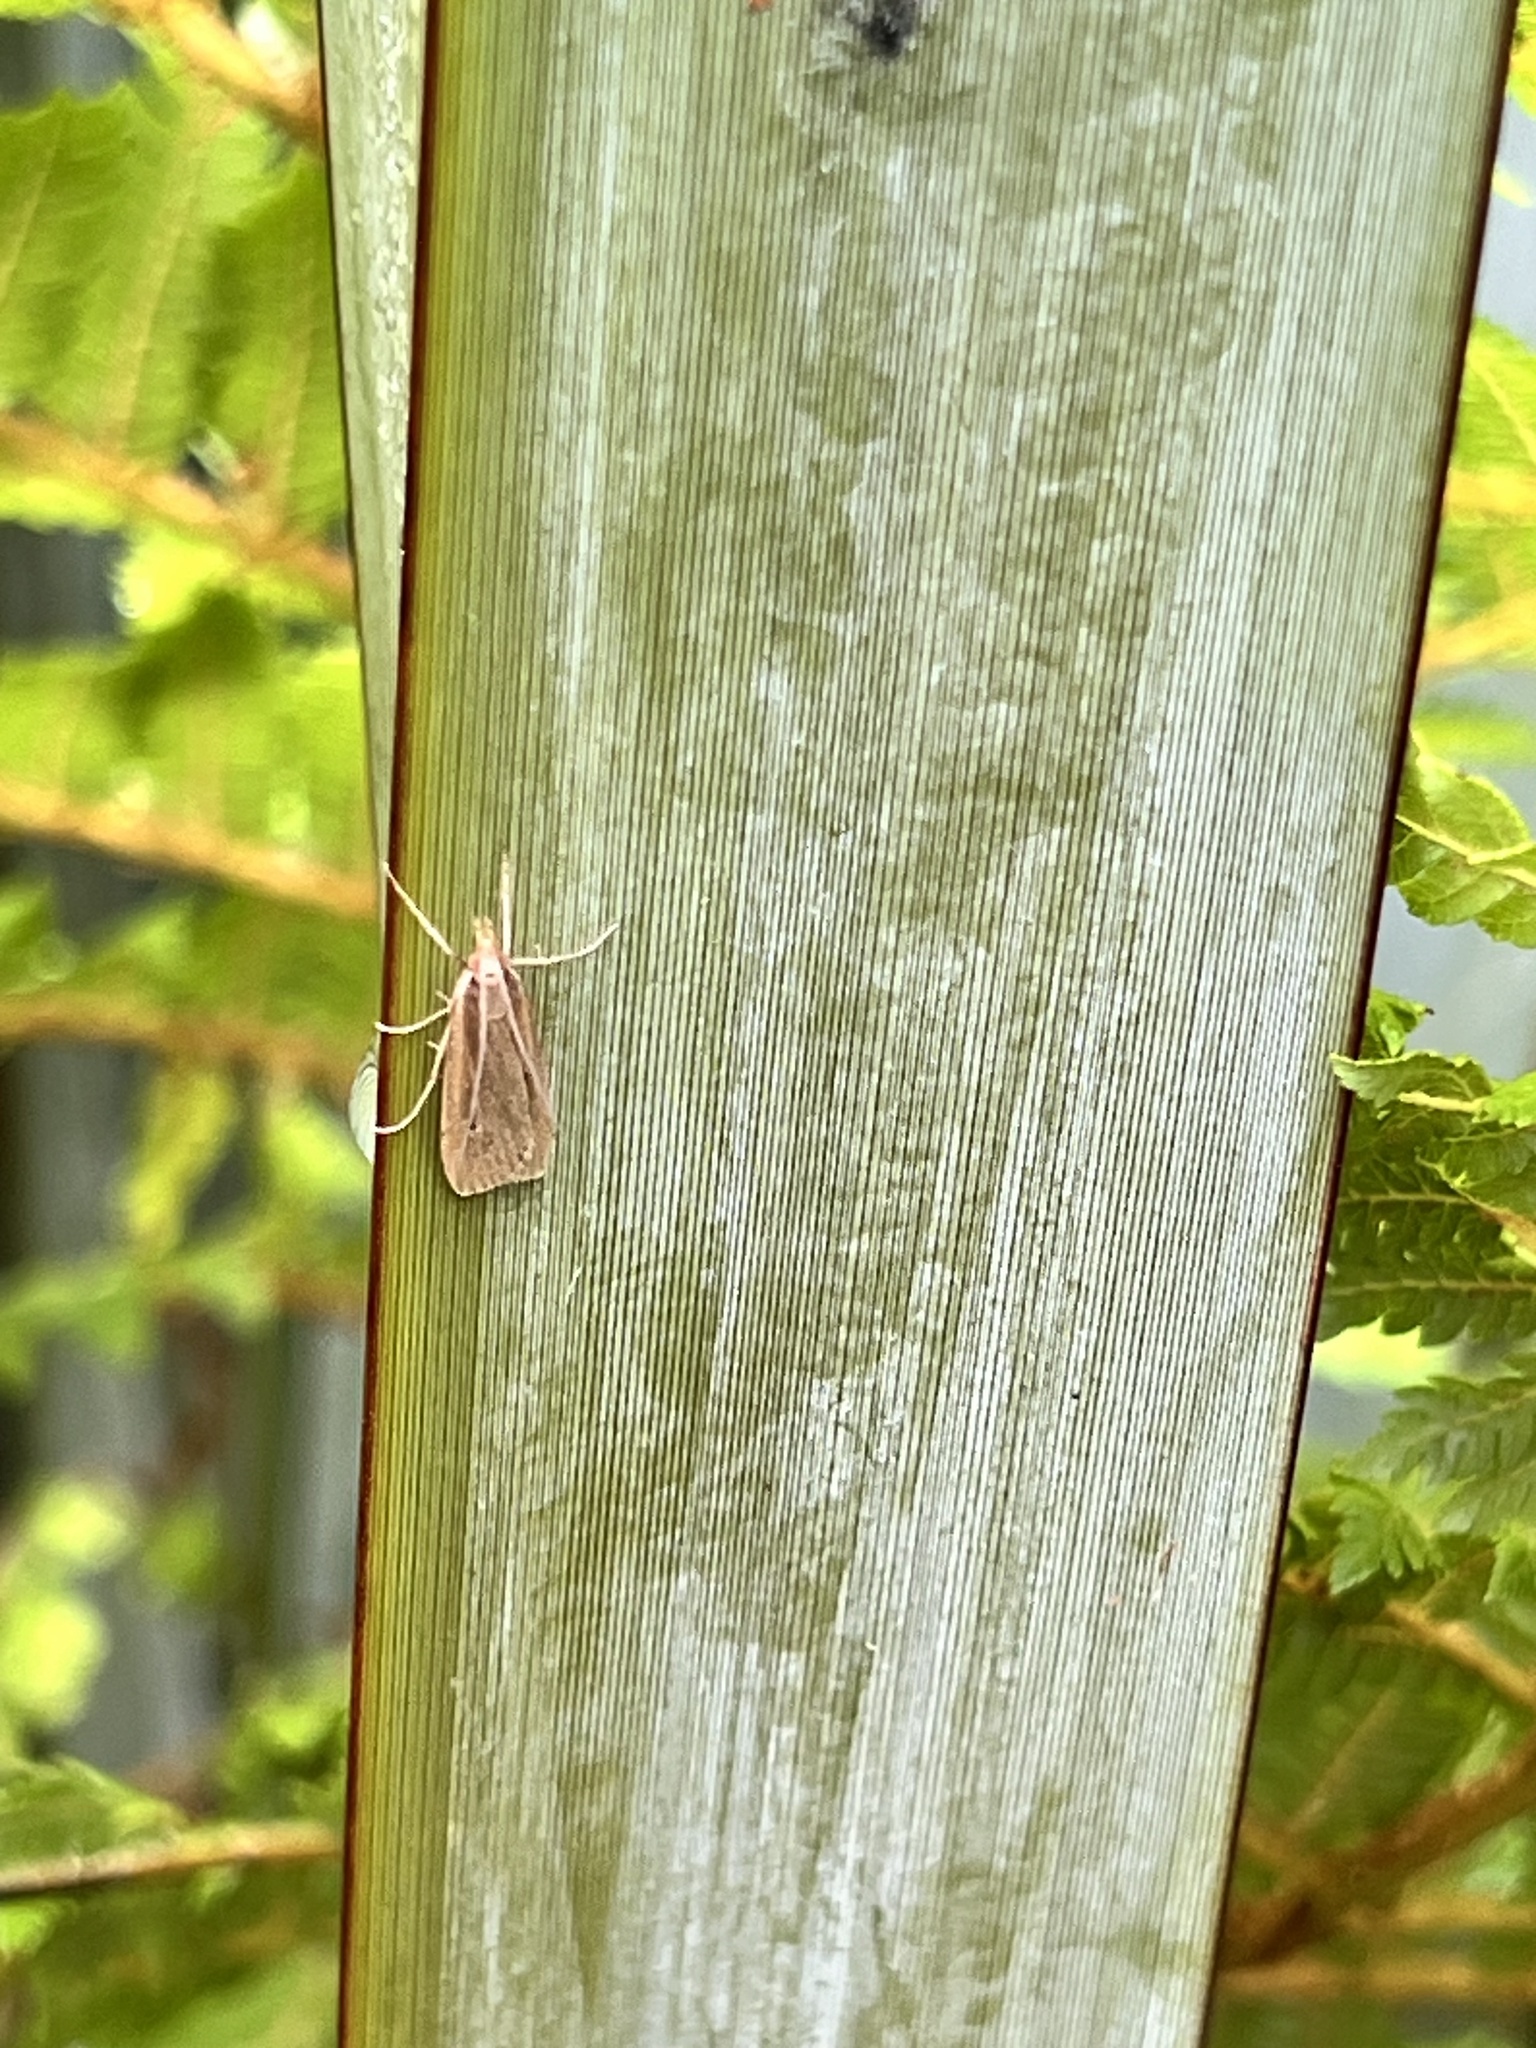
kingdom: Animalia
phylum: Arthropoda
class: Insecta
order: Lepidoptera
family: Crambidae
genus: Eudonia
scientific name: Eudonia sabulosella
